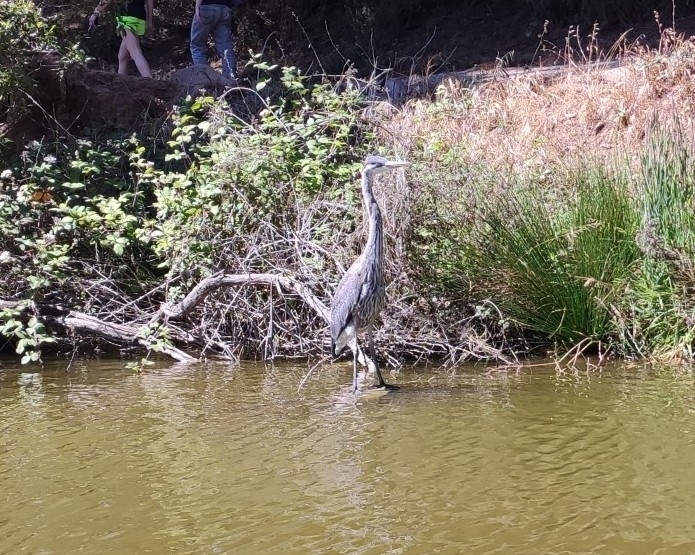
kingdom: Animalia
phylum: Chordata
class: Aves
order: Pelecaniformes
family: Ardeidae
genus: Ardea
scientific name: Ardea herodias
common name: Great blue heron
